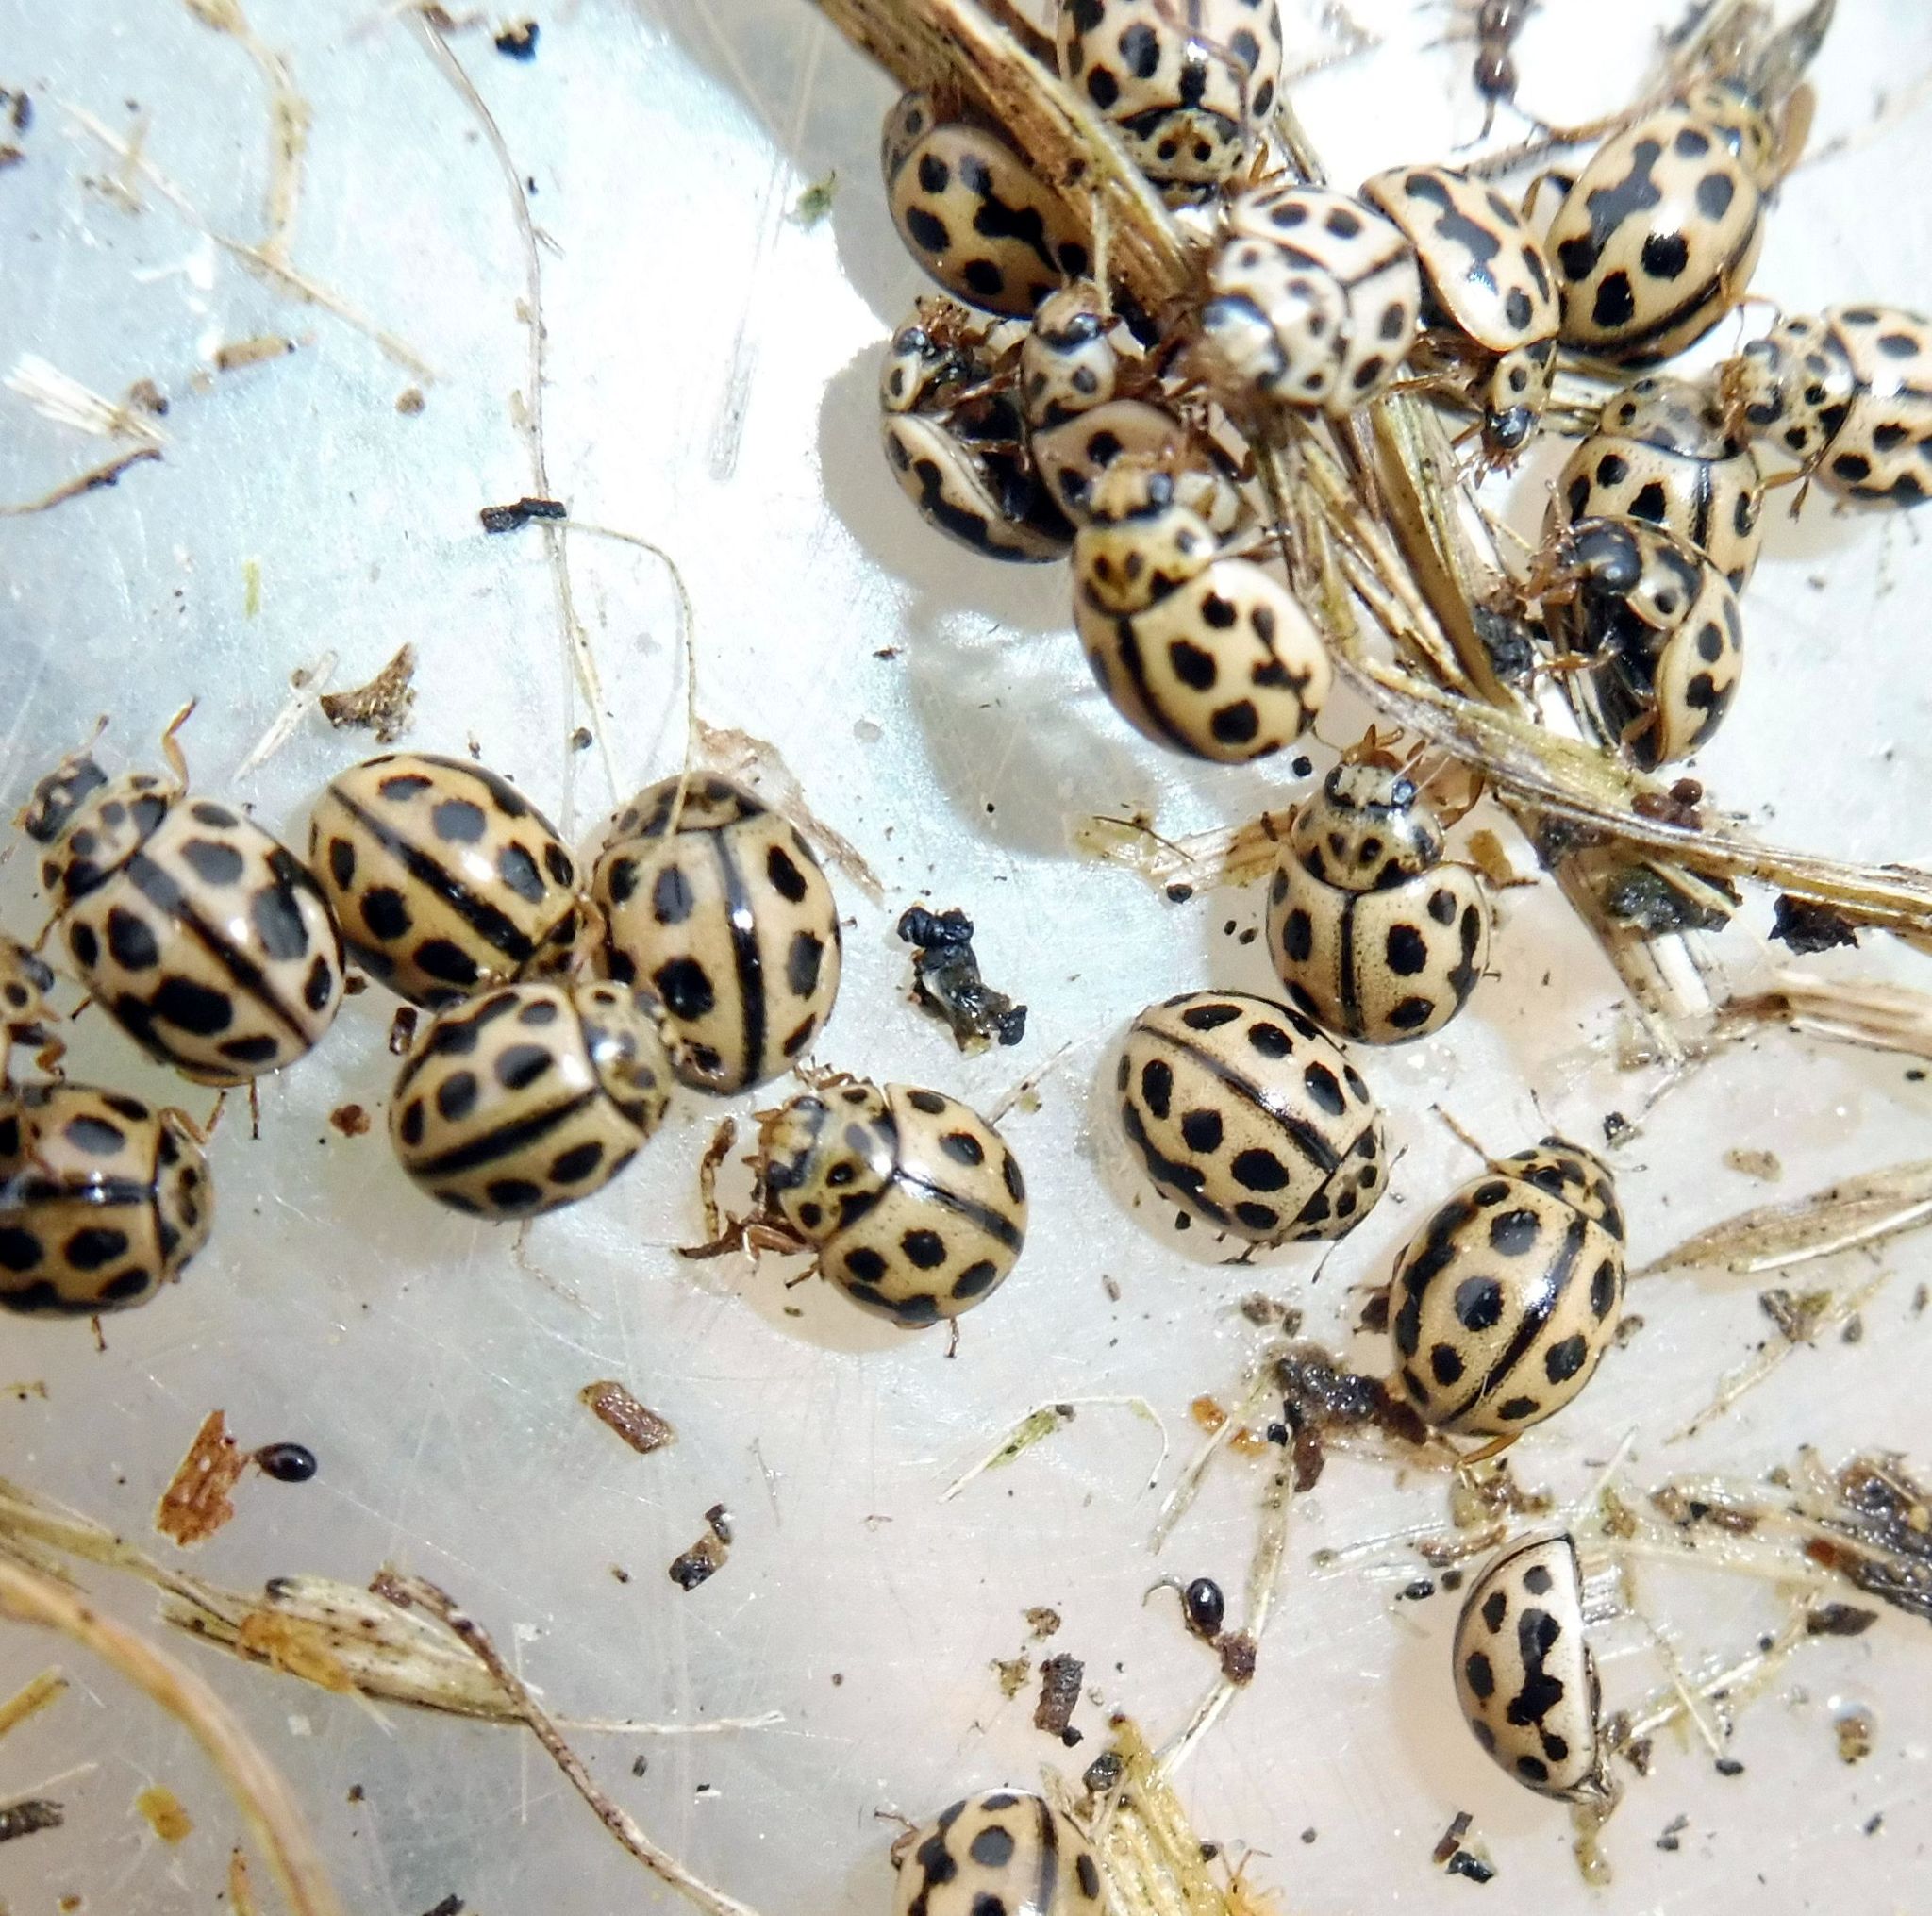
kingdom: Animalia
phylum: Arthropoda
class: Insecta
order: Coleoptera
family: Coccinellidae
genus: Tytthaspis
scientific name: Tytthaspis sedecimpunctata
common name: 16-spot ladybird
